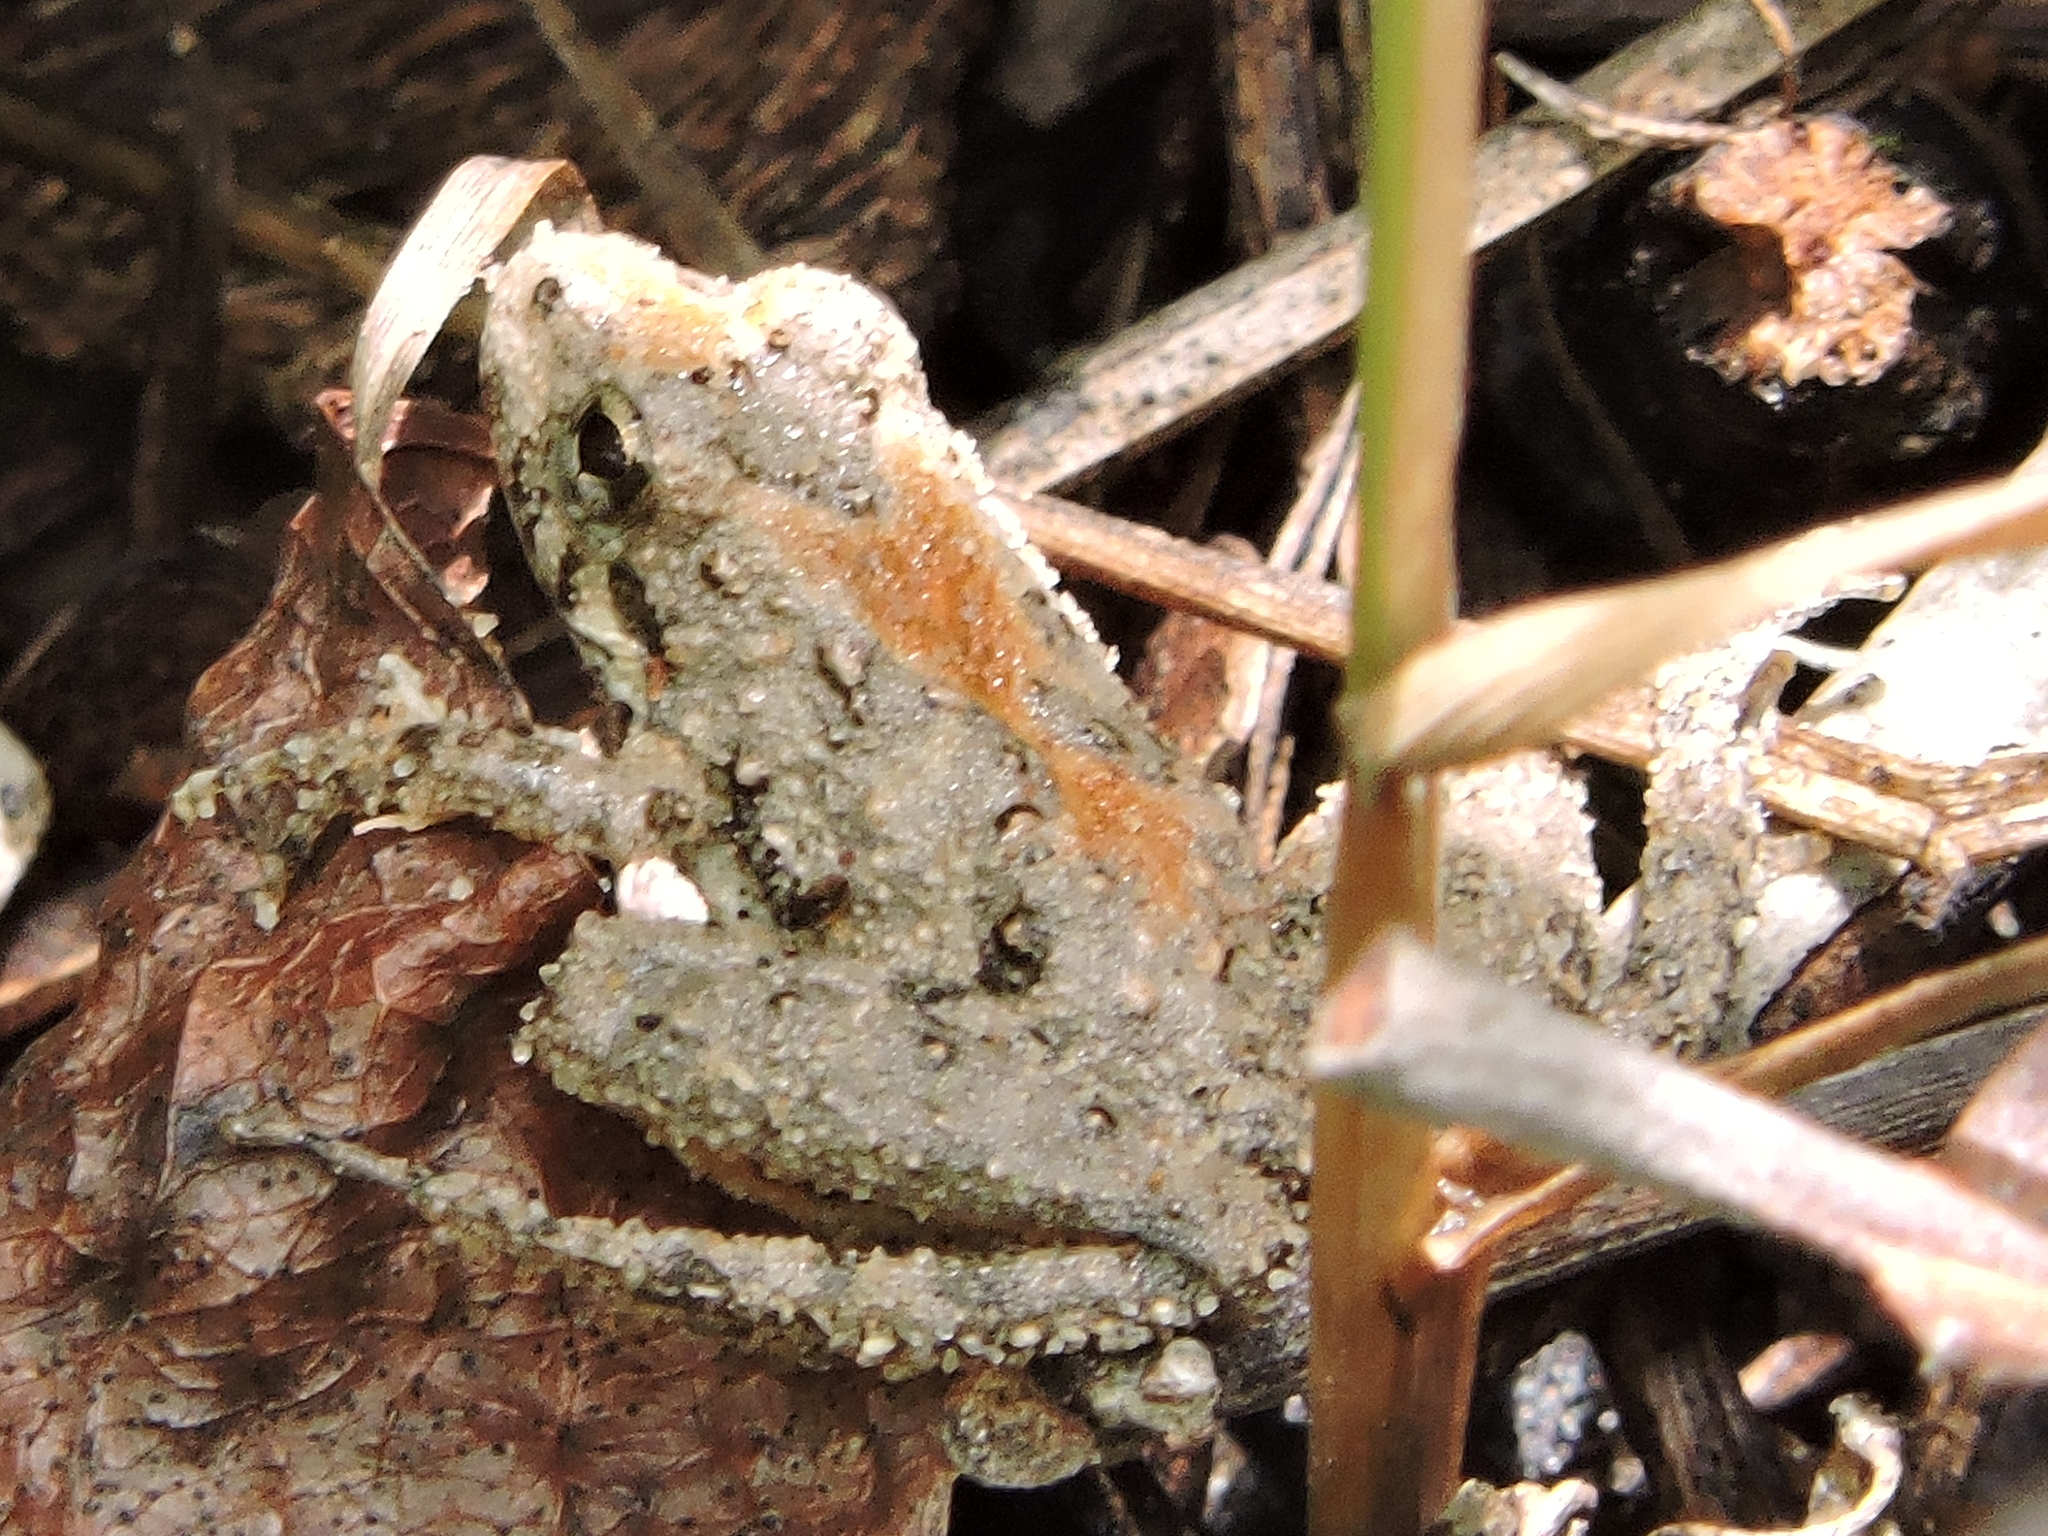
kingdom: Animalia
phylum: Chordata
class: Amphibia
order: Anura
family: Hylidae
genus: Acris
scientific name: Acris blanchardi
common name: Blanchard's cricket frog
